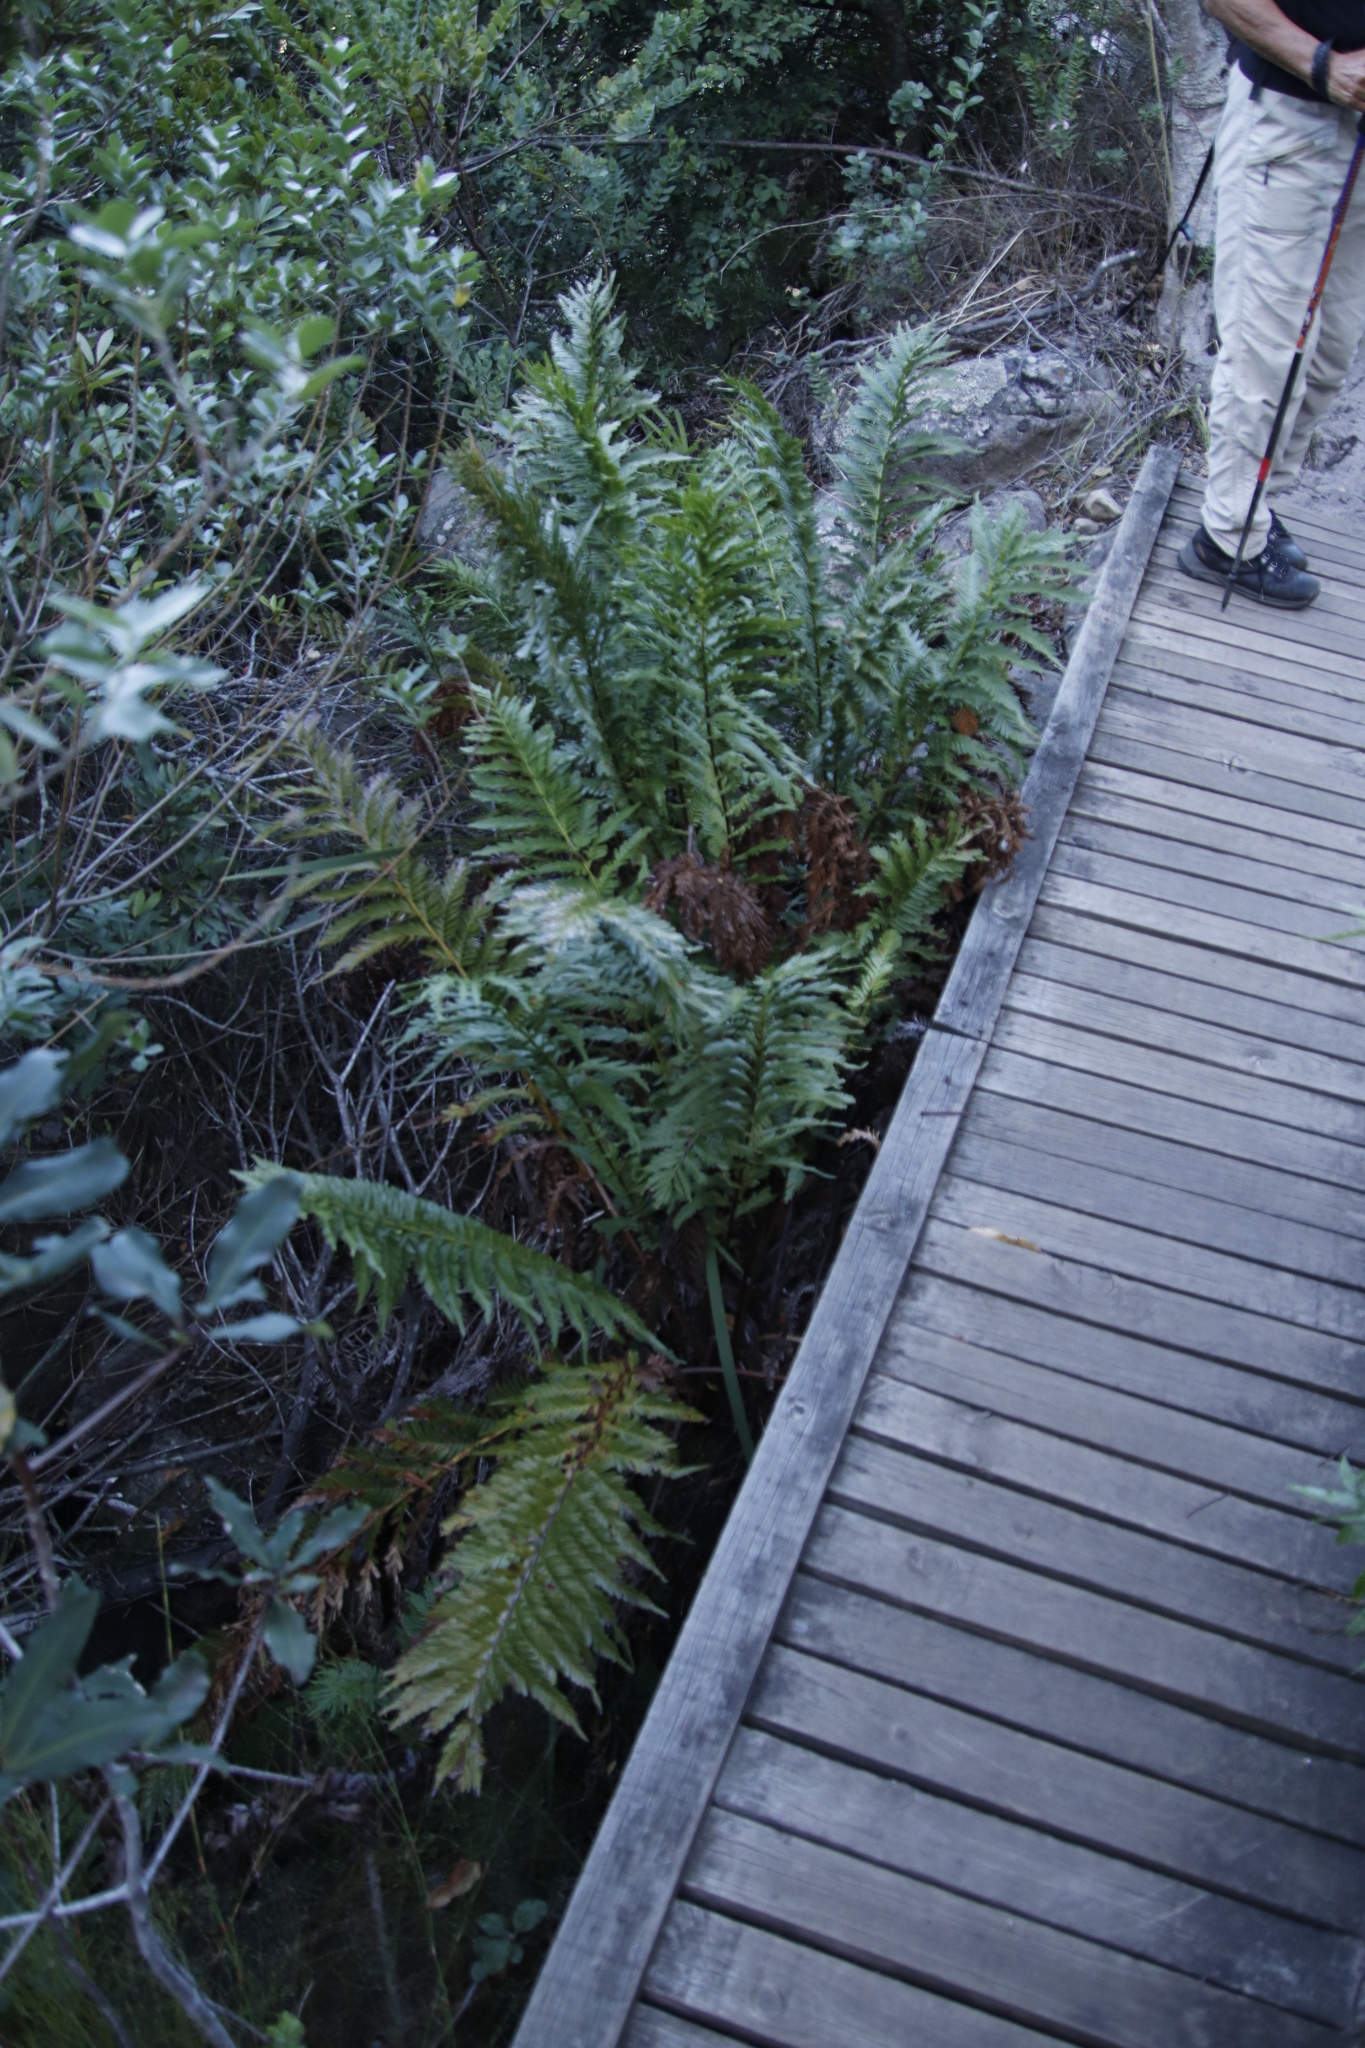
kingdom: Plantae
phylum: Tracheophyta
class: Polypodiopsida
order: Osmundales
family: Osmundaceae
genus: Todea
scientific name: Todea barbara
